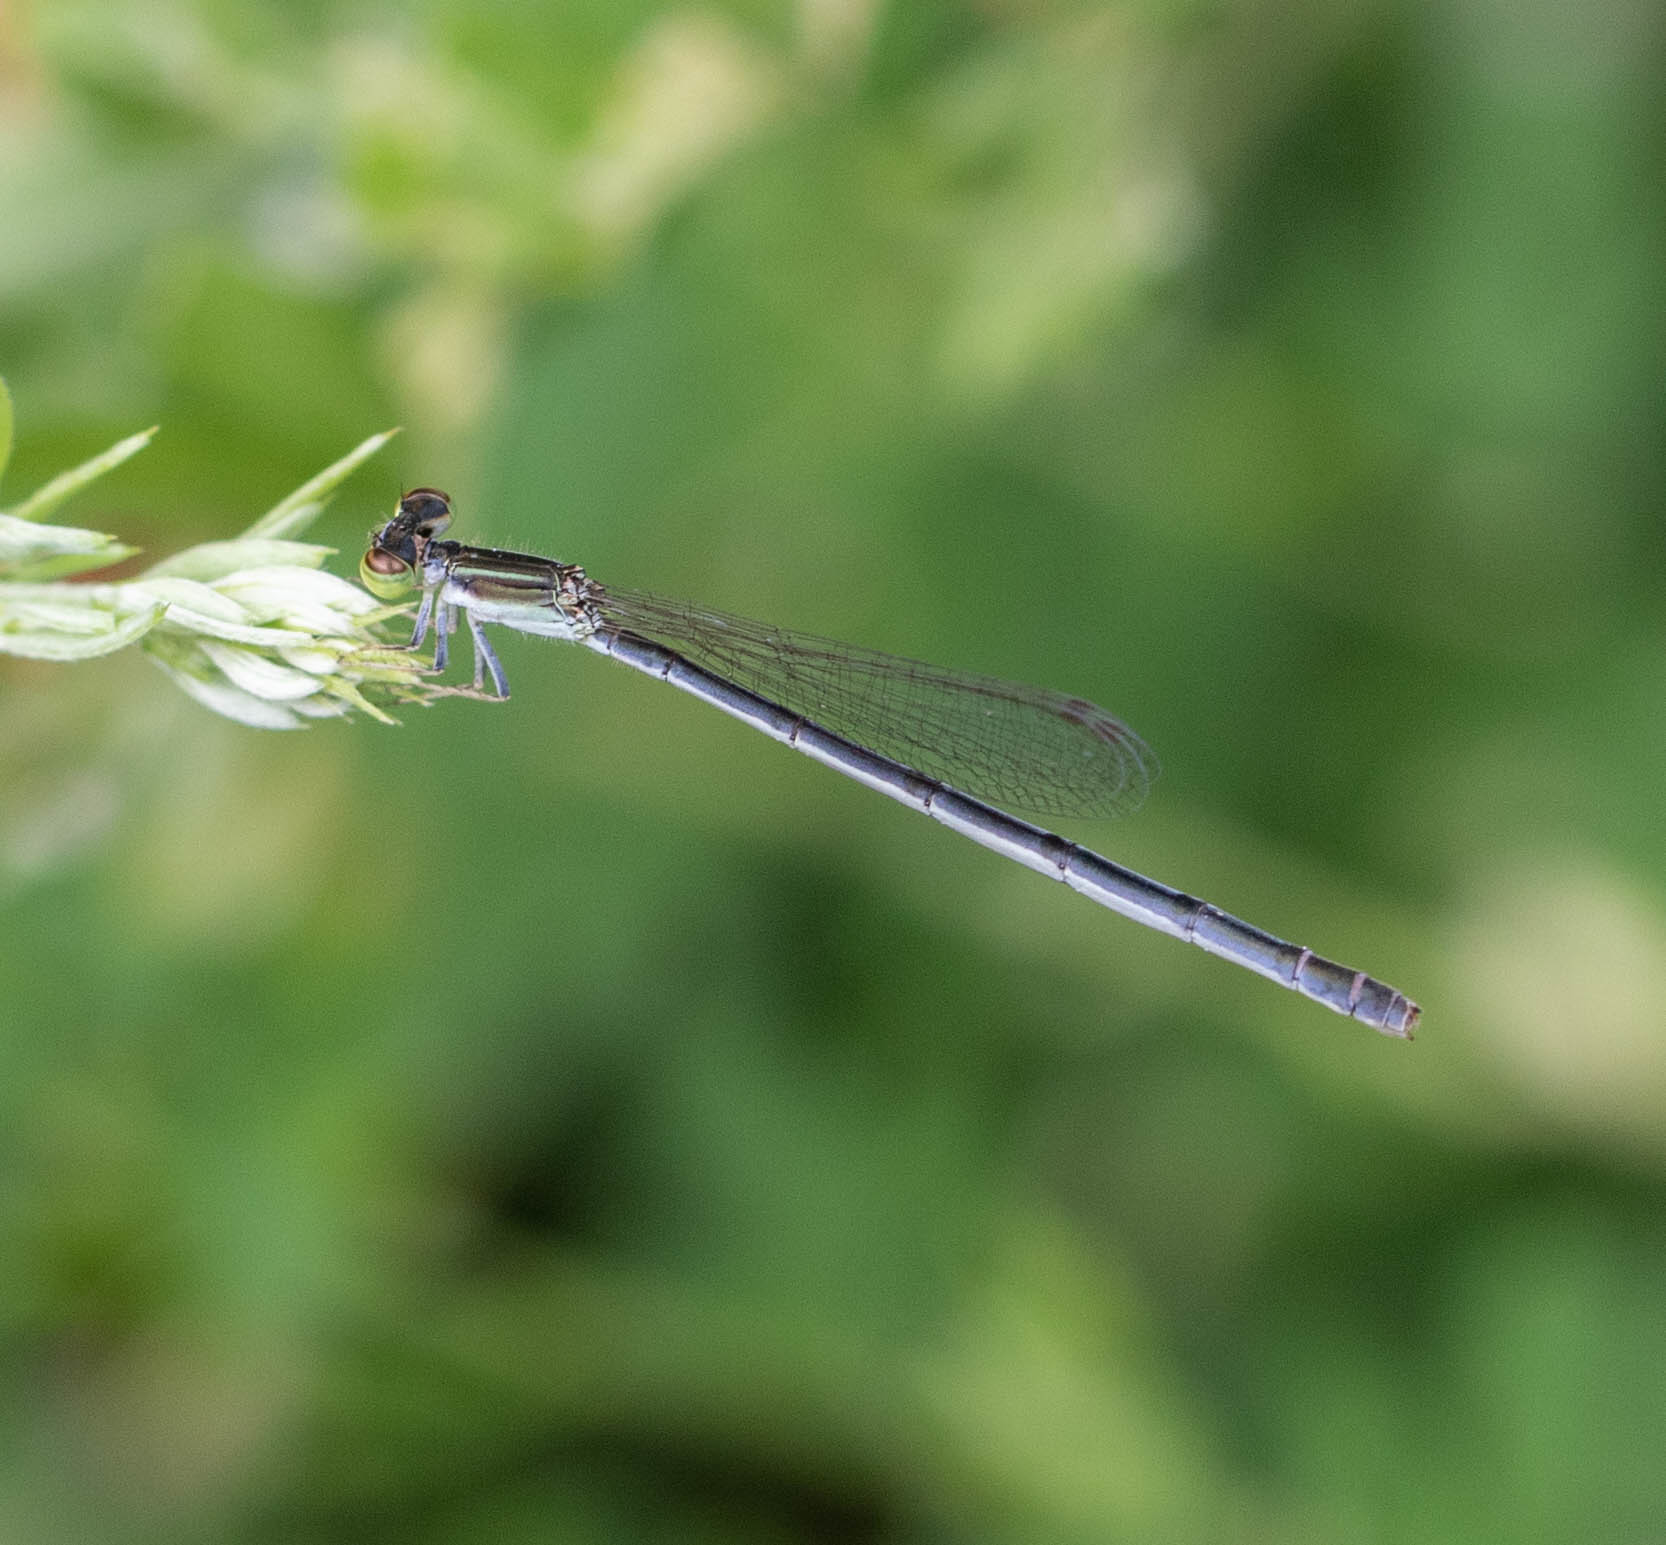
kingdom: Animalia
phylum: Arthropoda
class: Insecta
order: Odonata
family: Coenagrionidae
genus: Ischnura
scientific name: Ischnura hastata
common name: Citrine forktail
